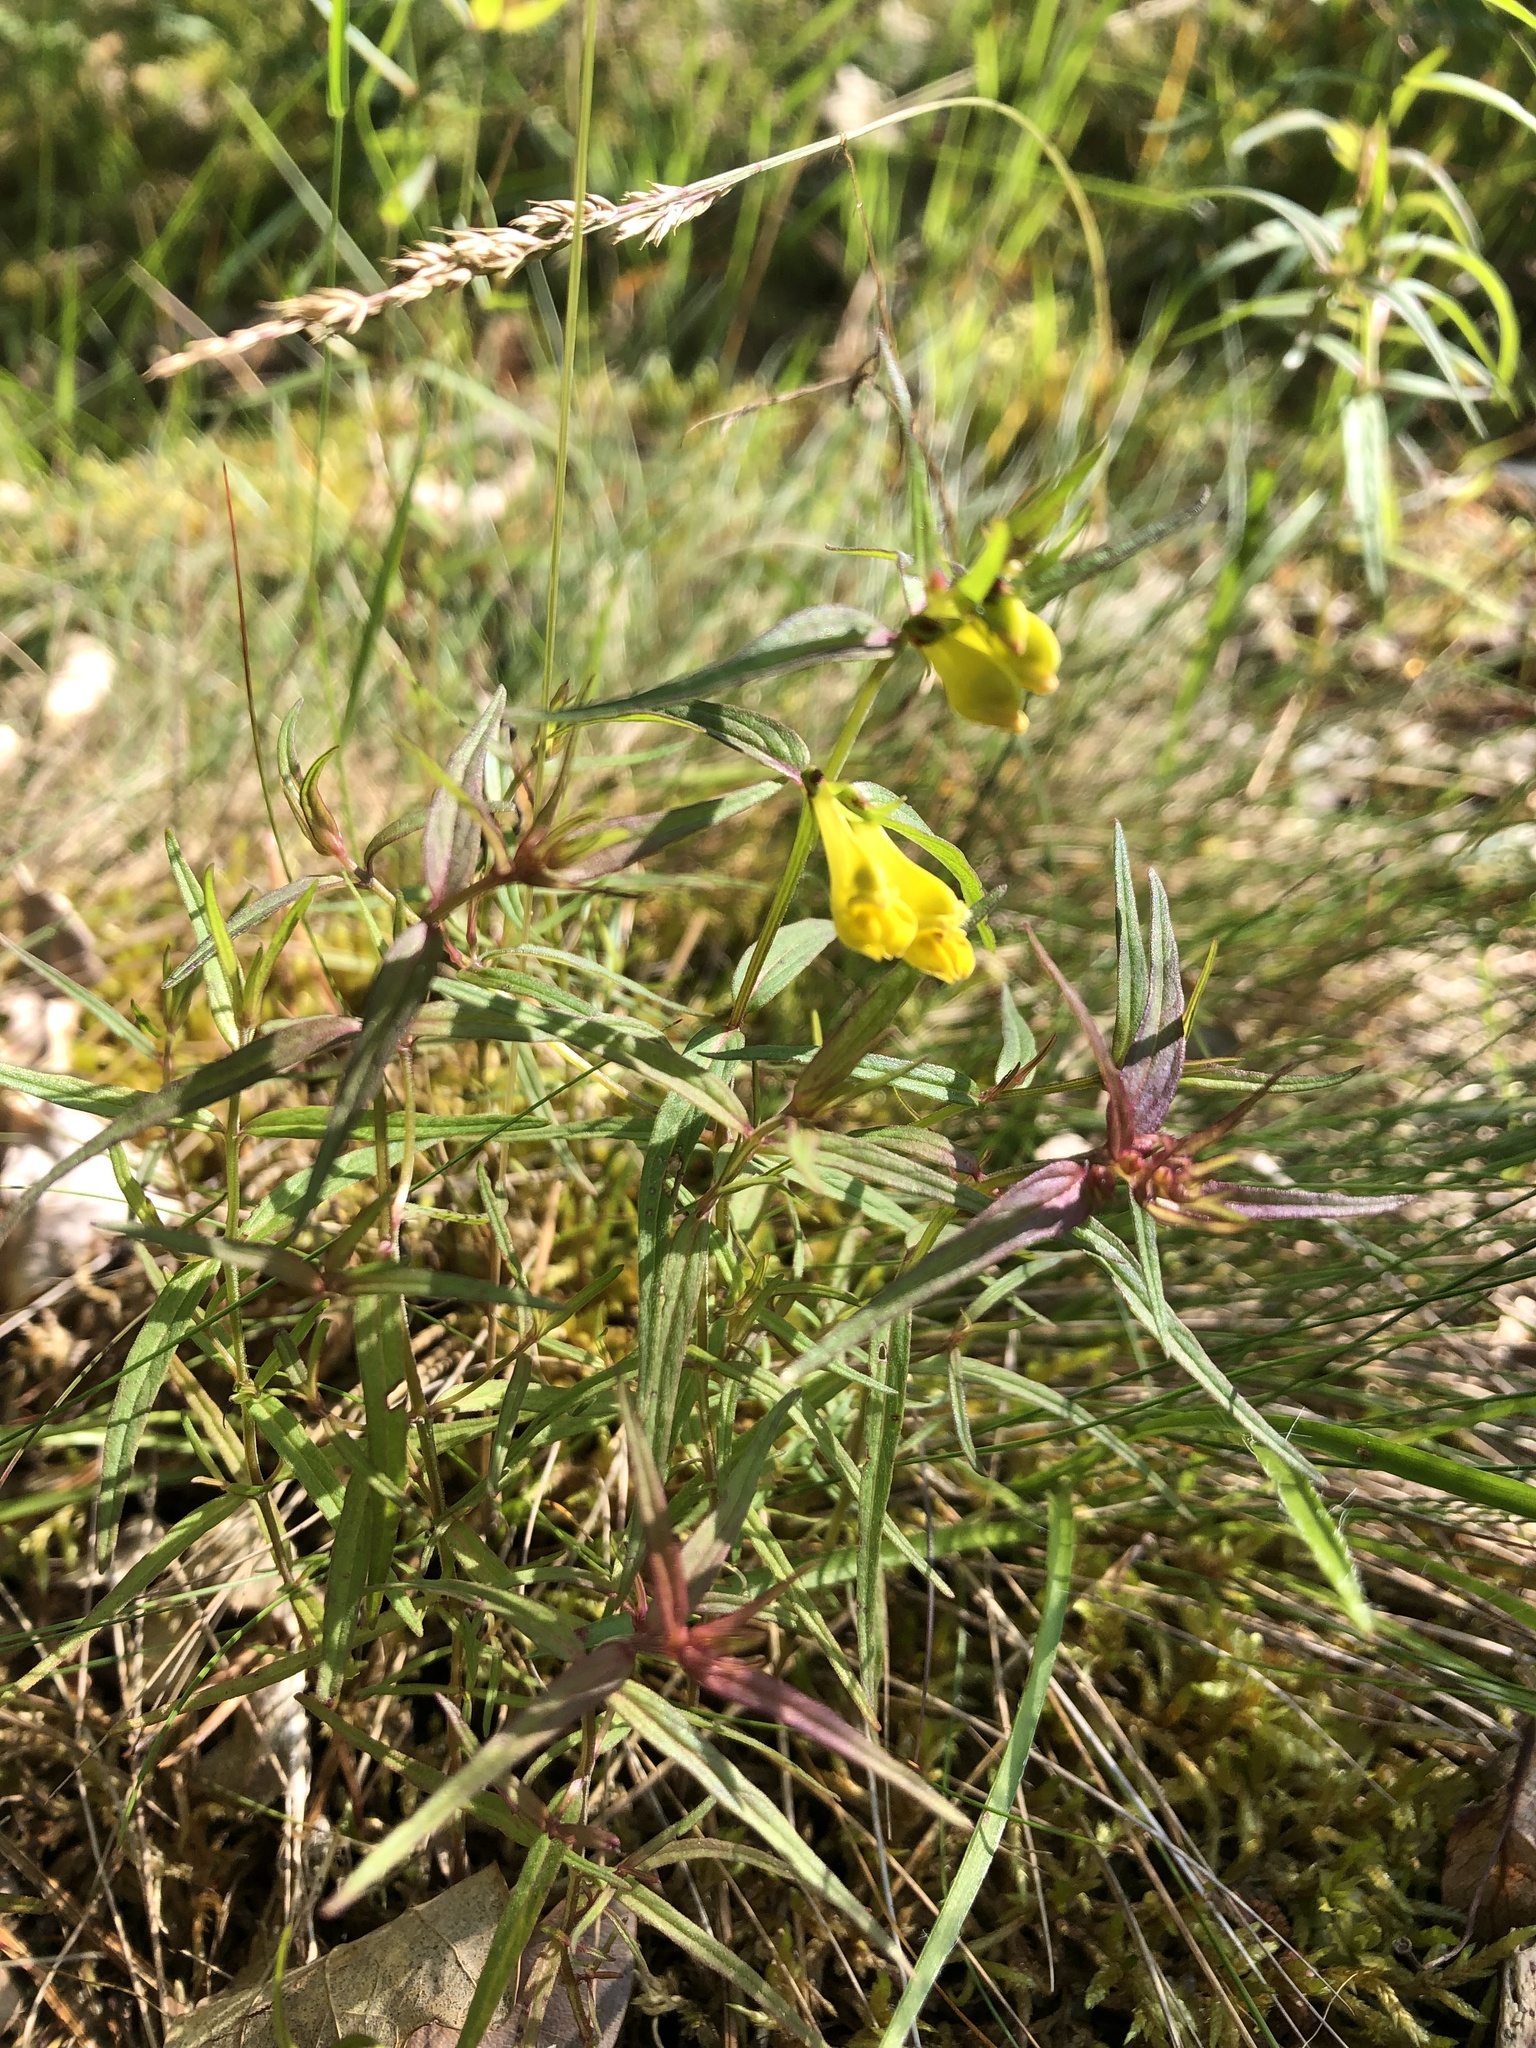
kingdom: Plantae
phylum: Tracheophyta
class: Magnoliopsida
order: Lamiales
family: Orobanchaceae
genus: Melampyrum
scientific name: Melampyrum pratense
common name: Common cow-wheat
